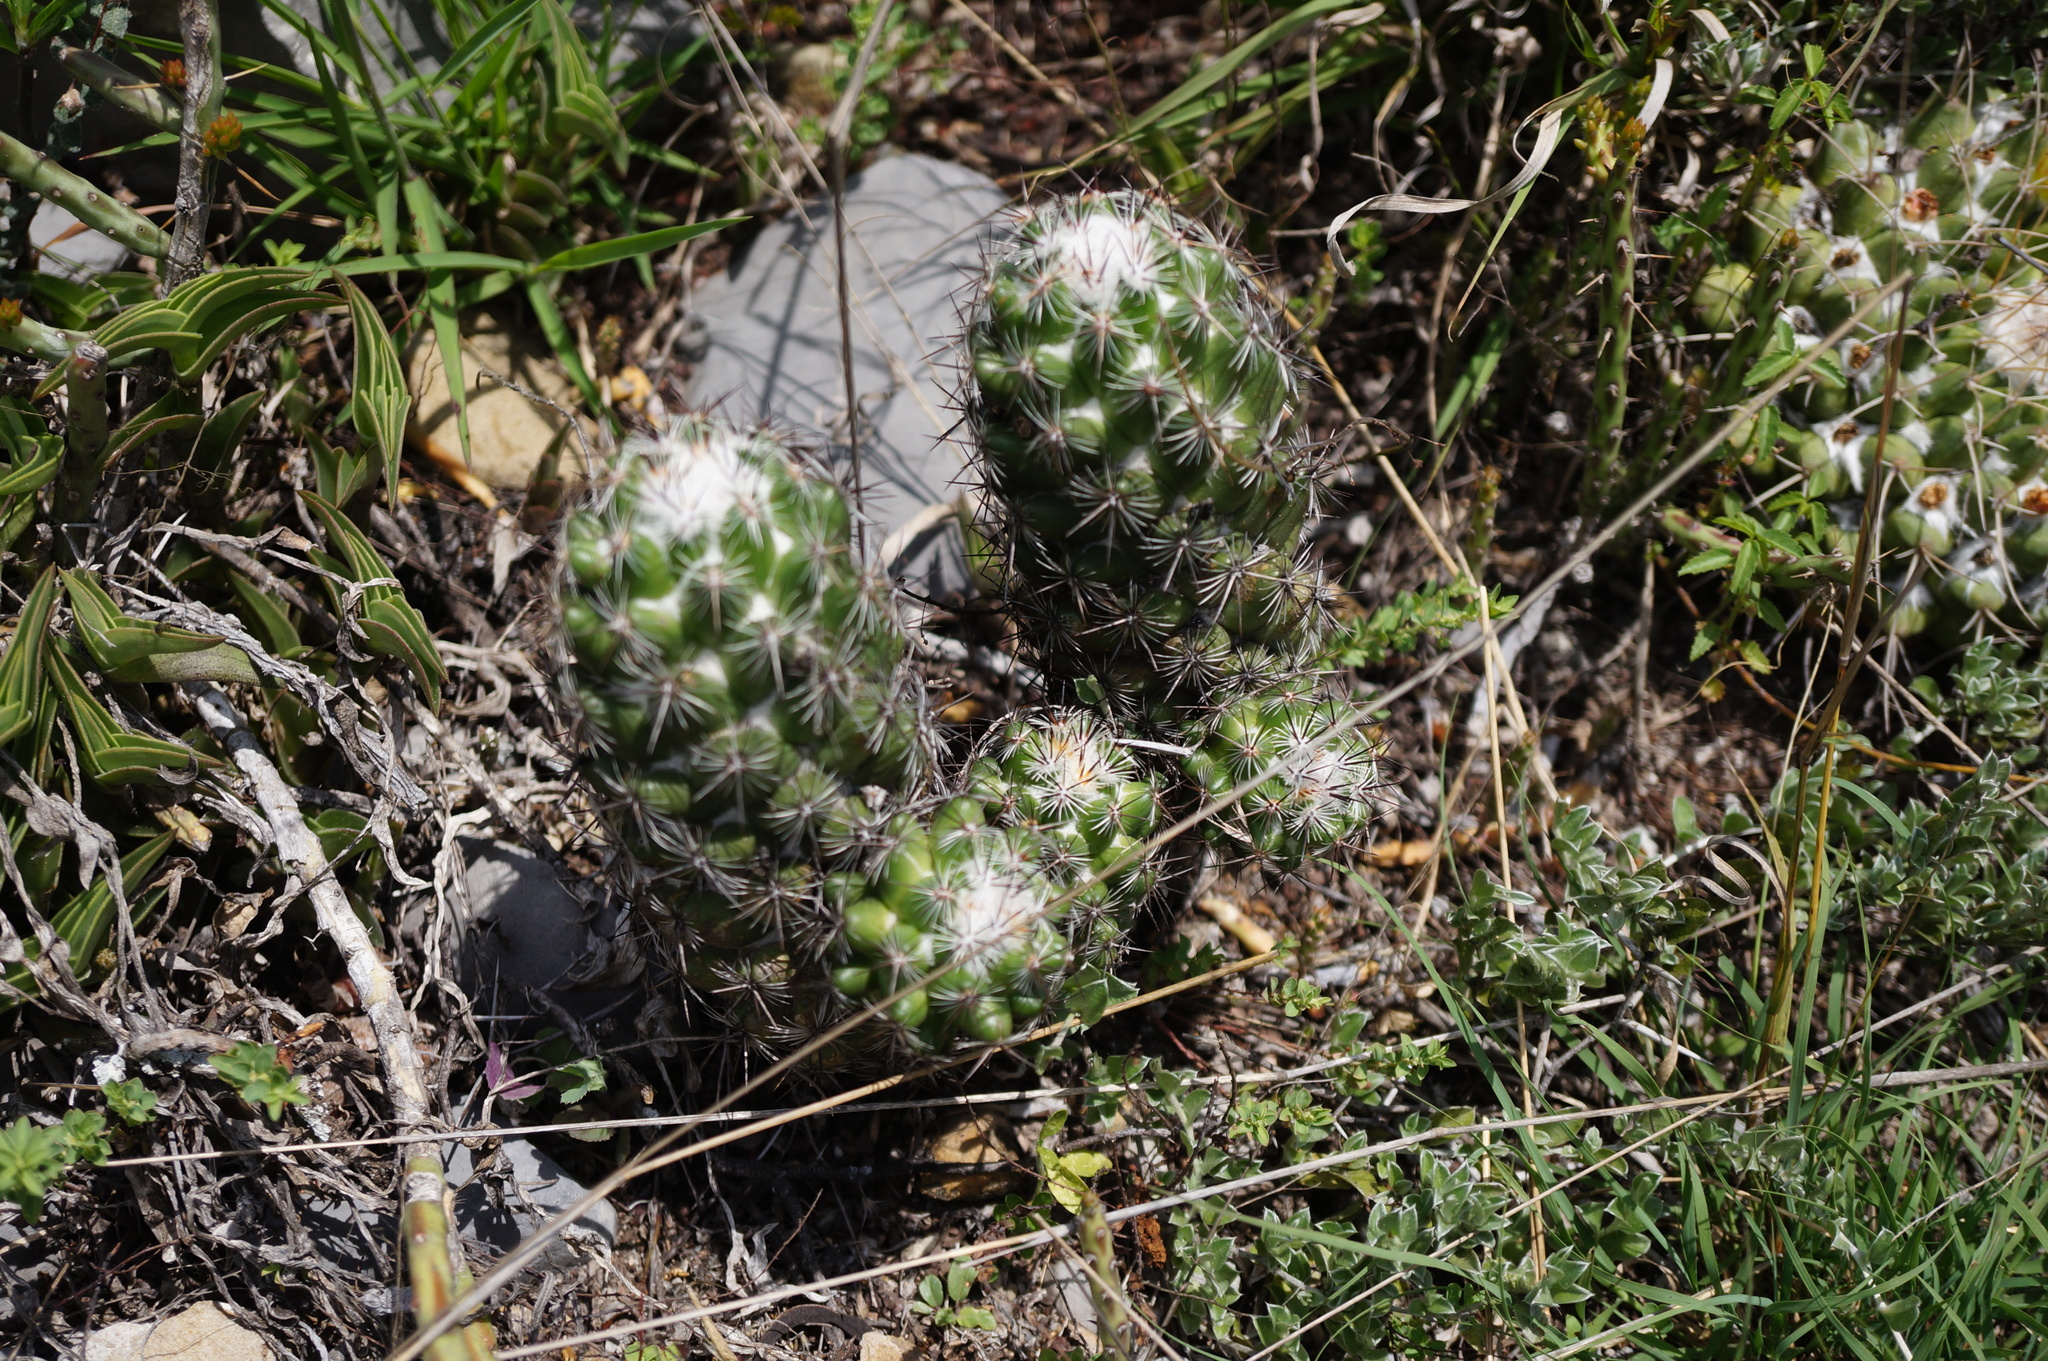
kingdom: Plantae
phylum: Tracheophyta
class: Magnoliopsida
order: Caryophyllales
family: Cactaceae
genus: Cochemiea
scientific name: Cochemiea conoidea
